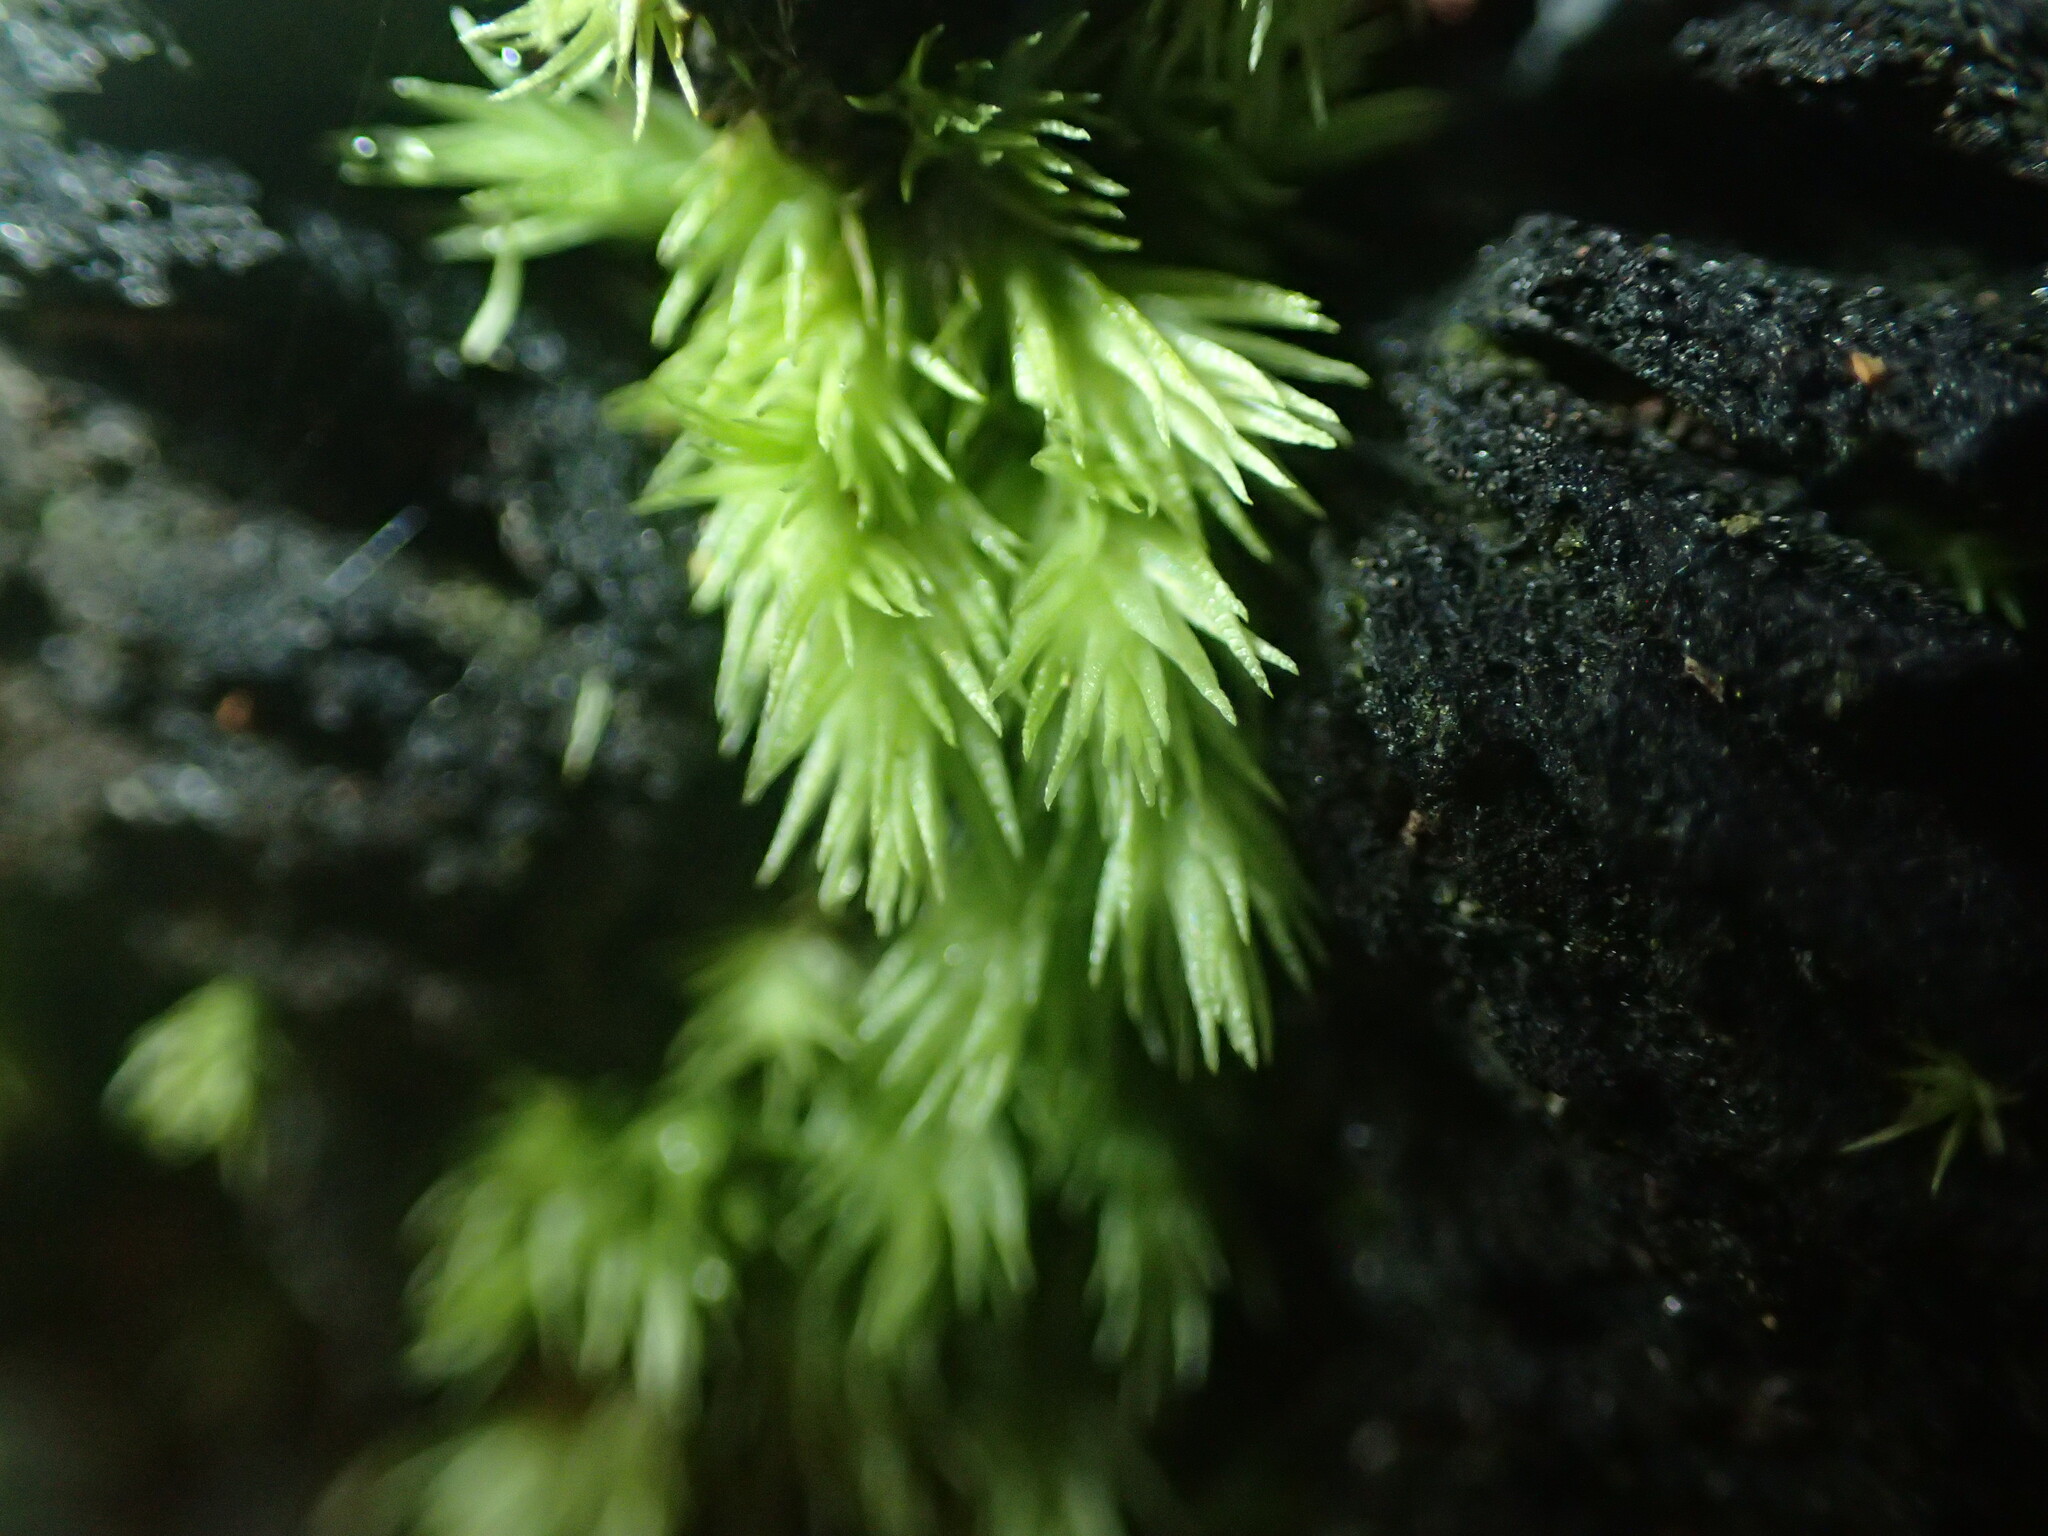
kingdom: Plantae
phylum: Bryophyta
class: Bryopsida
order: Dicranales
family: Leucobryaceae
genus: Leucobryum
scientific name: Leucobryum javense
